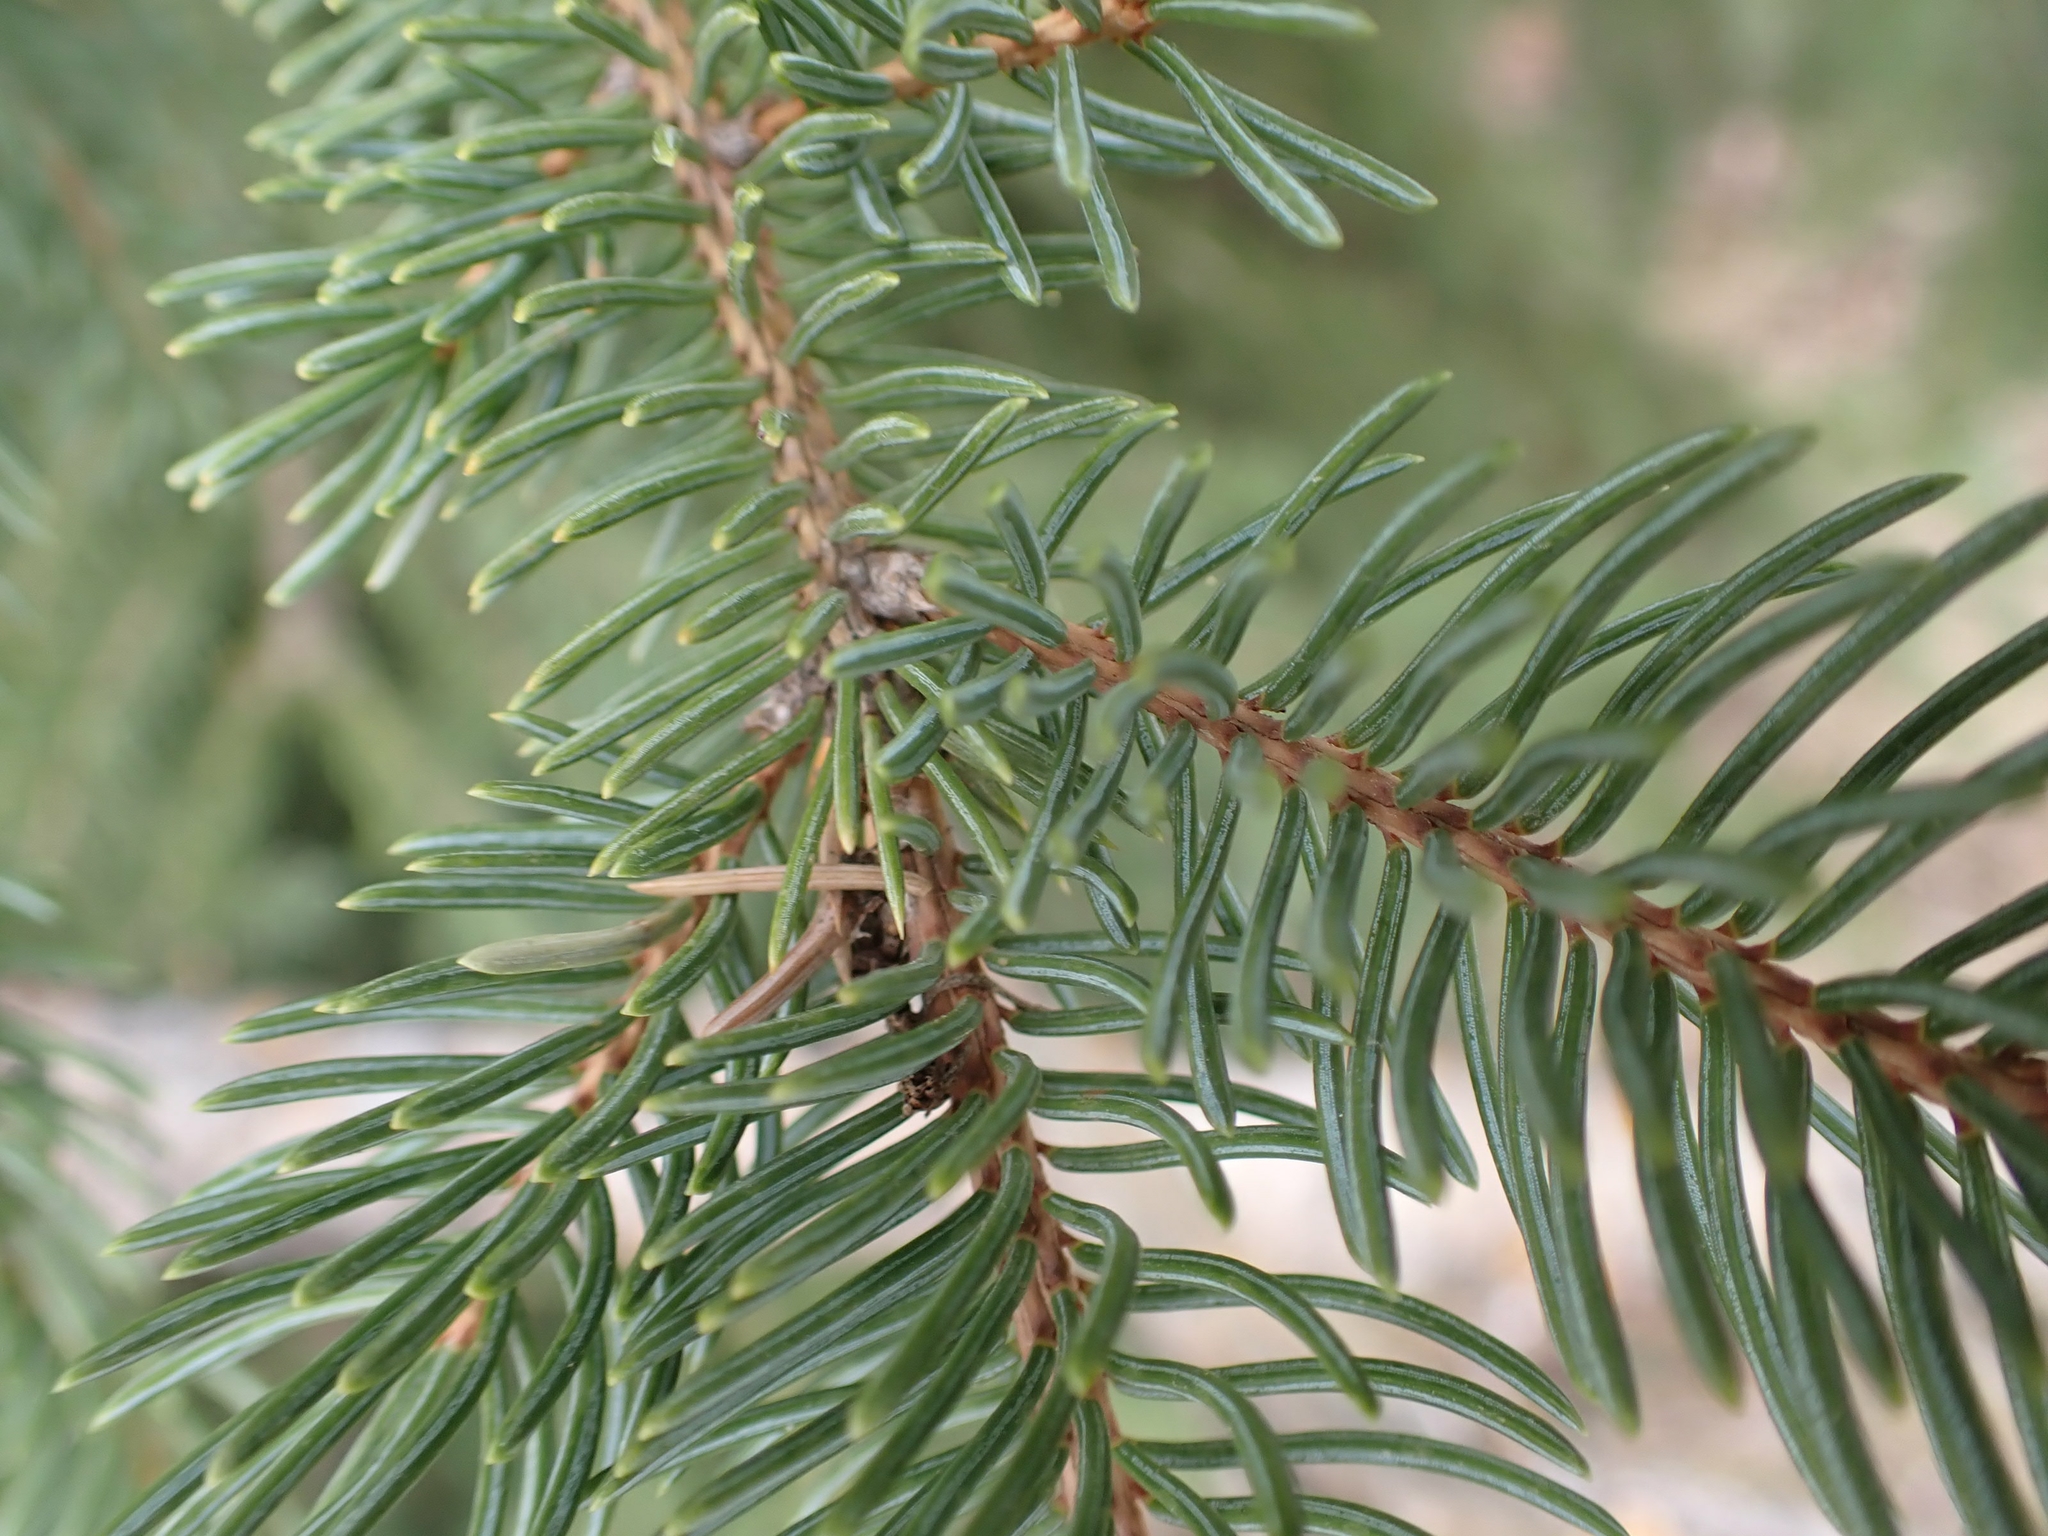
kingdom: Plantae
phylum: Tracheophyta
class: Pinopsida
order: Pinales
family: Pinaceae
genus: Picea
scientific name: Picea glauca
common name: White spruce
